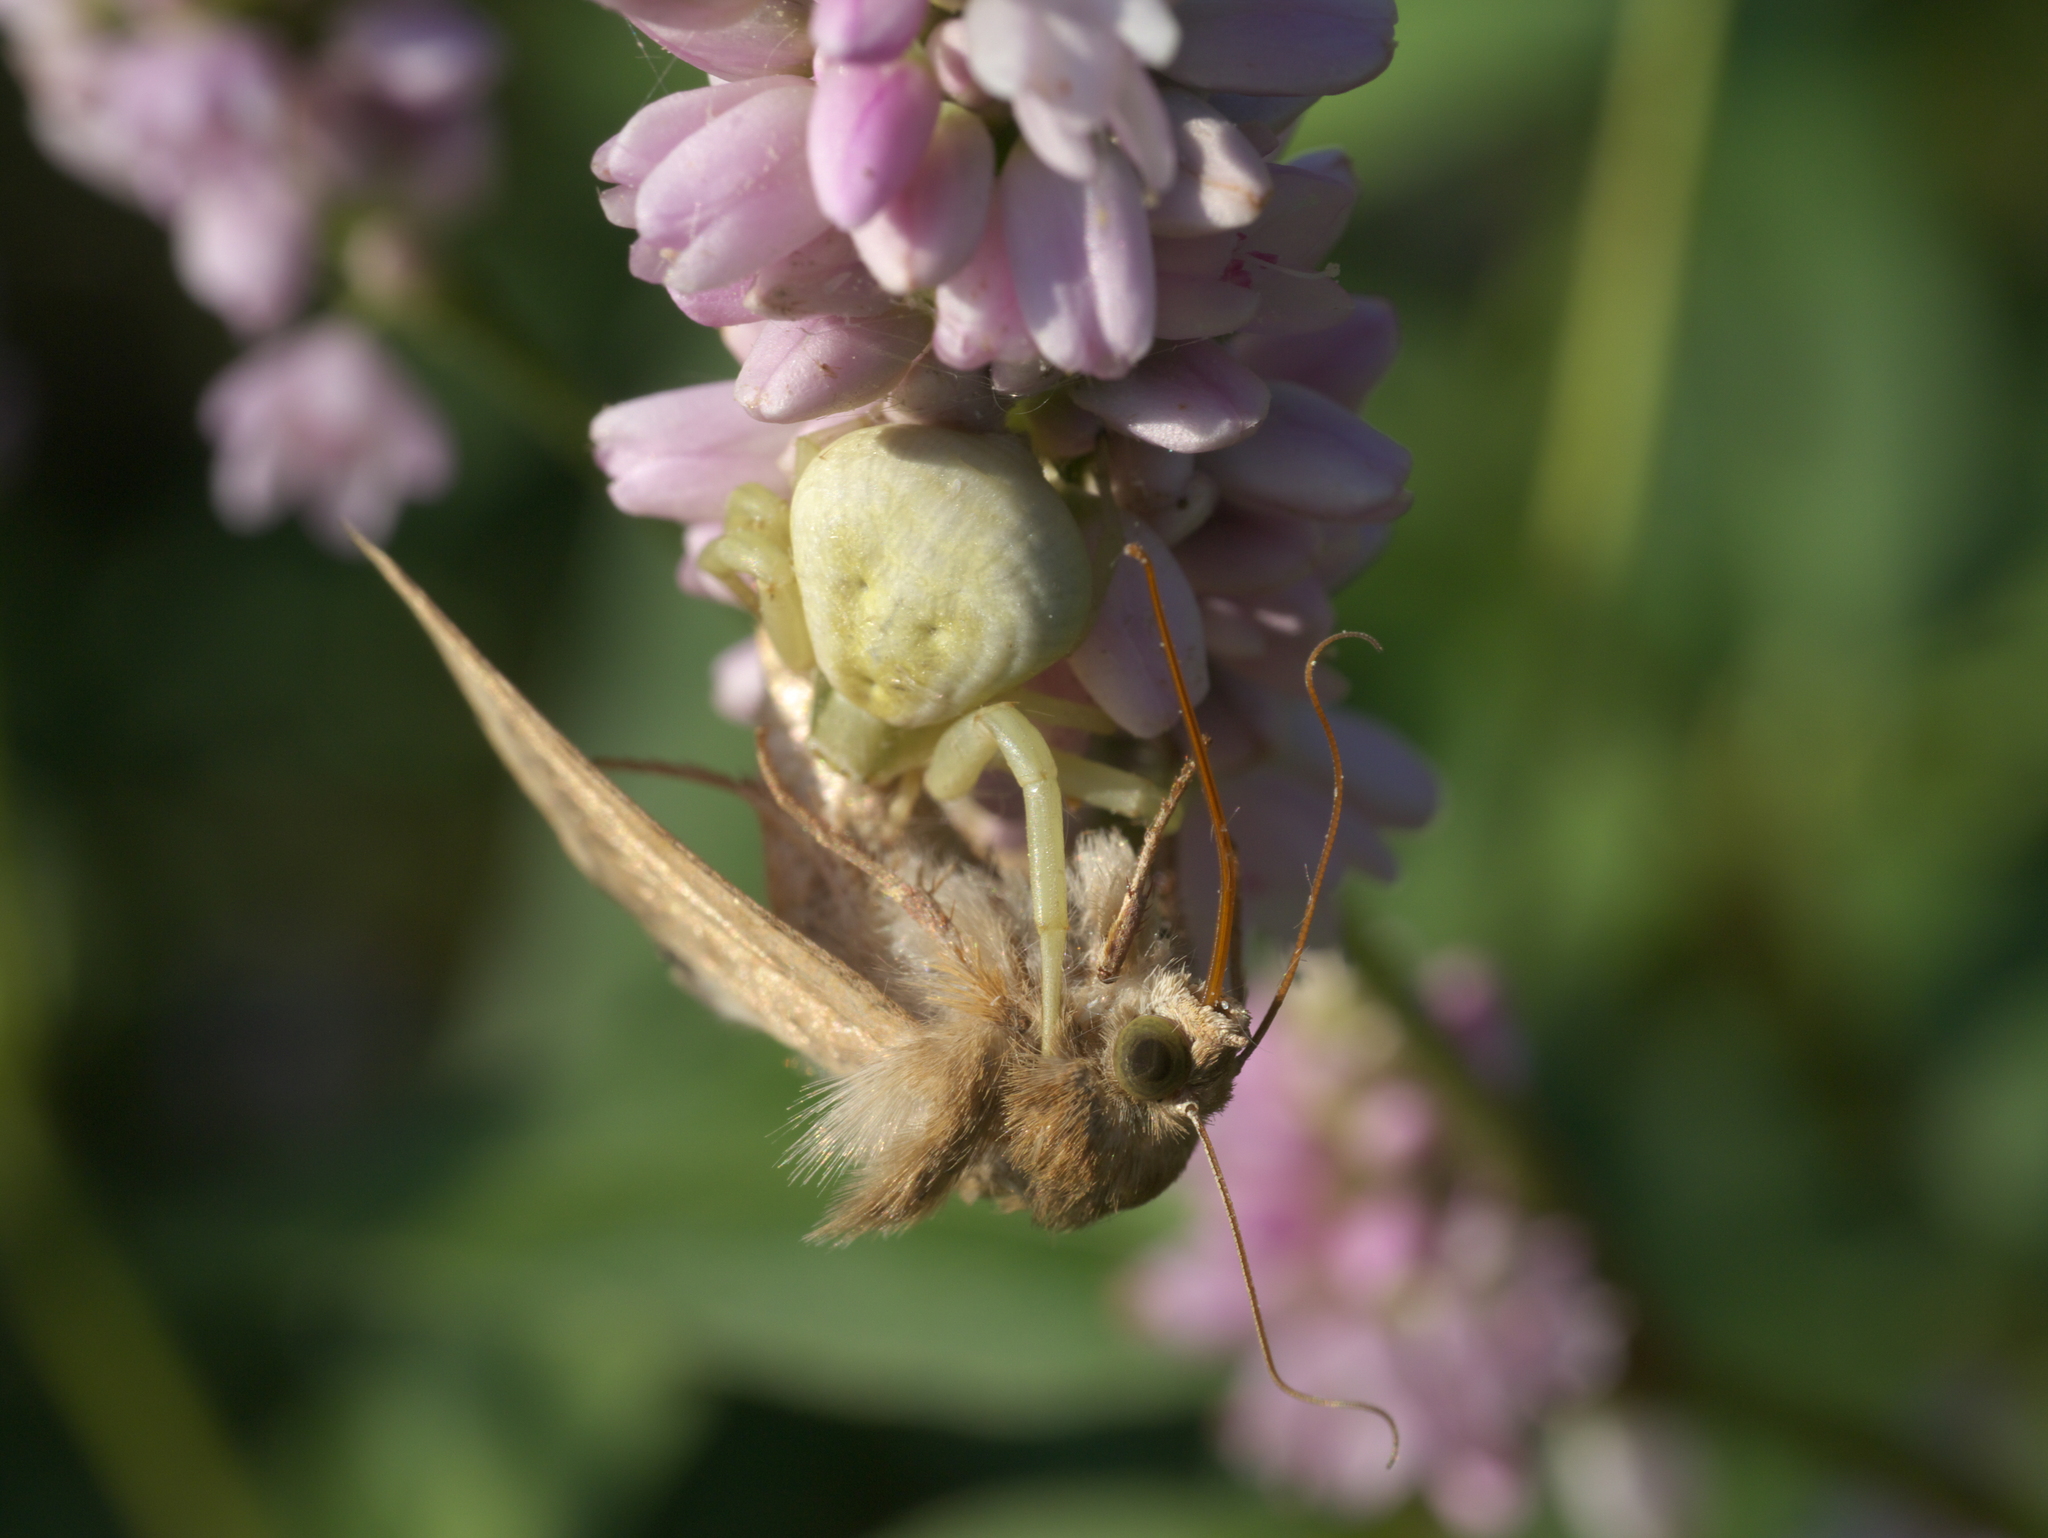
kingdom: Animalia
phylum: Arthropoda
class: Arachnida
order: Araneae
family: Thomisidae
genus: Misumenoides
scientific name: Misumenoides formosipes
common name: White-banded crab spider
